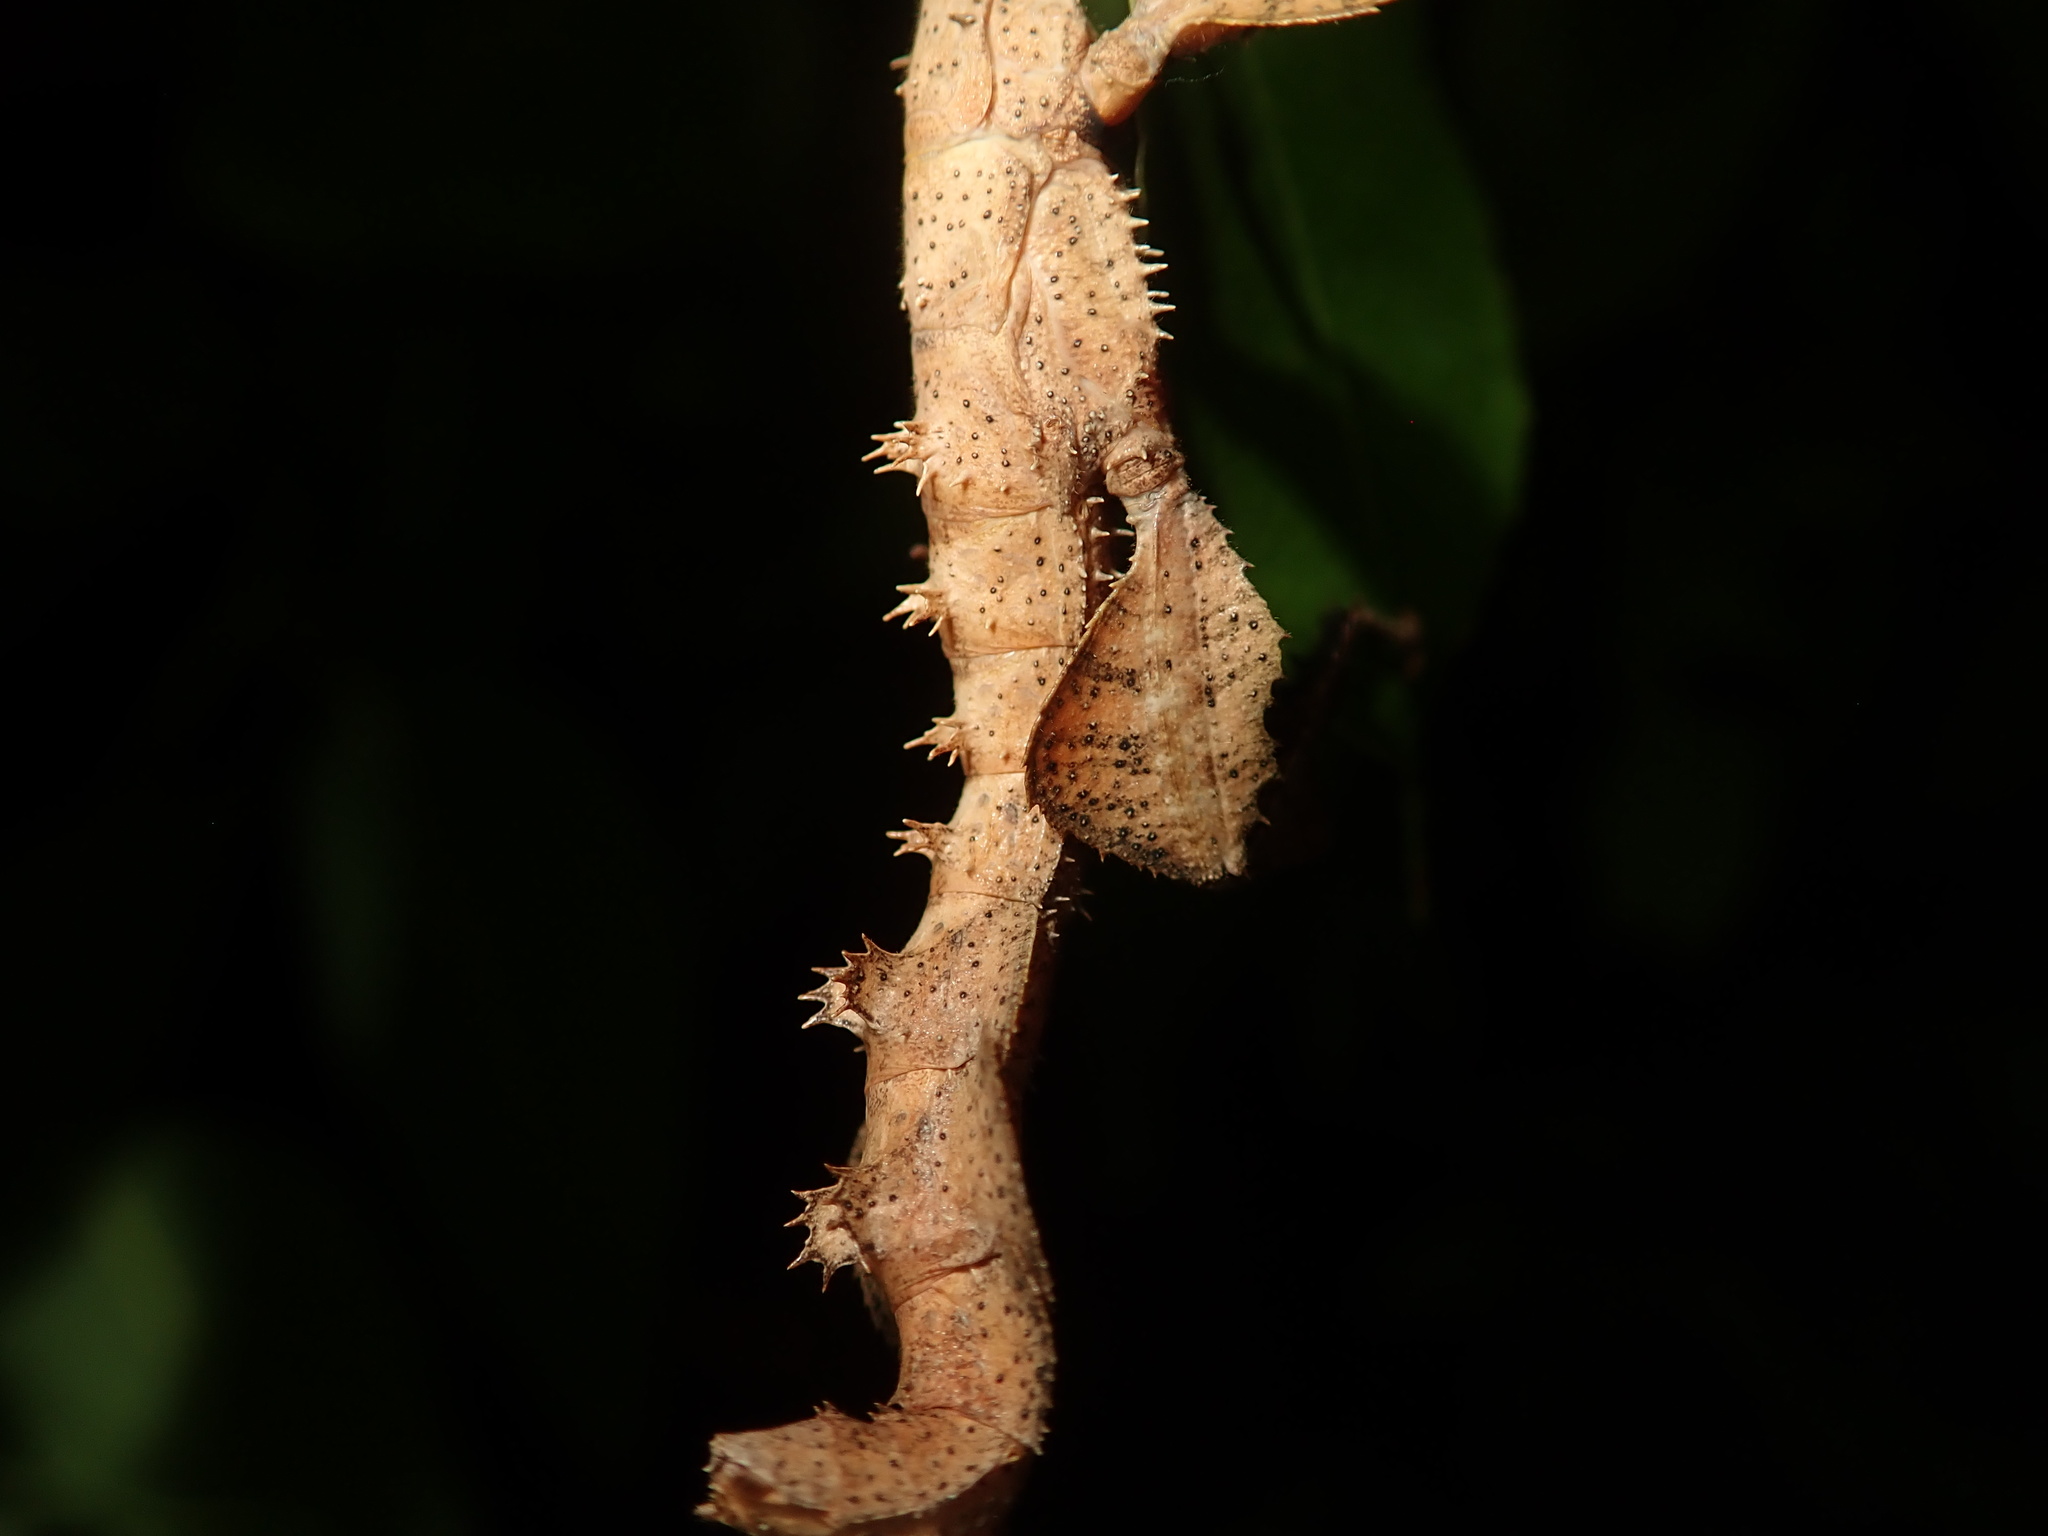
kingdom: Animalia
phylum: Arthropoda
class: Insecta
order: Phasmida
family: Phasmatidae
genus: Extatosoma
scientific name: Extatosoma tiaratum
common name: Macleay's spectre
